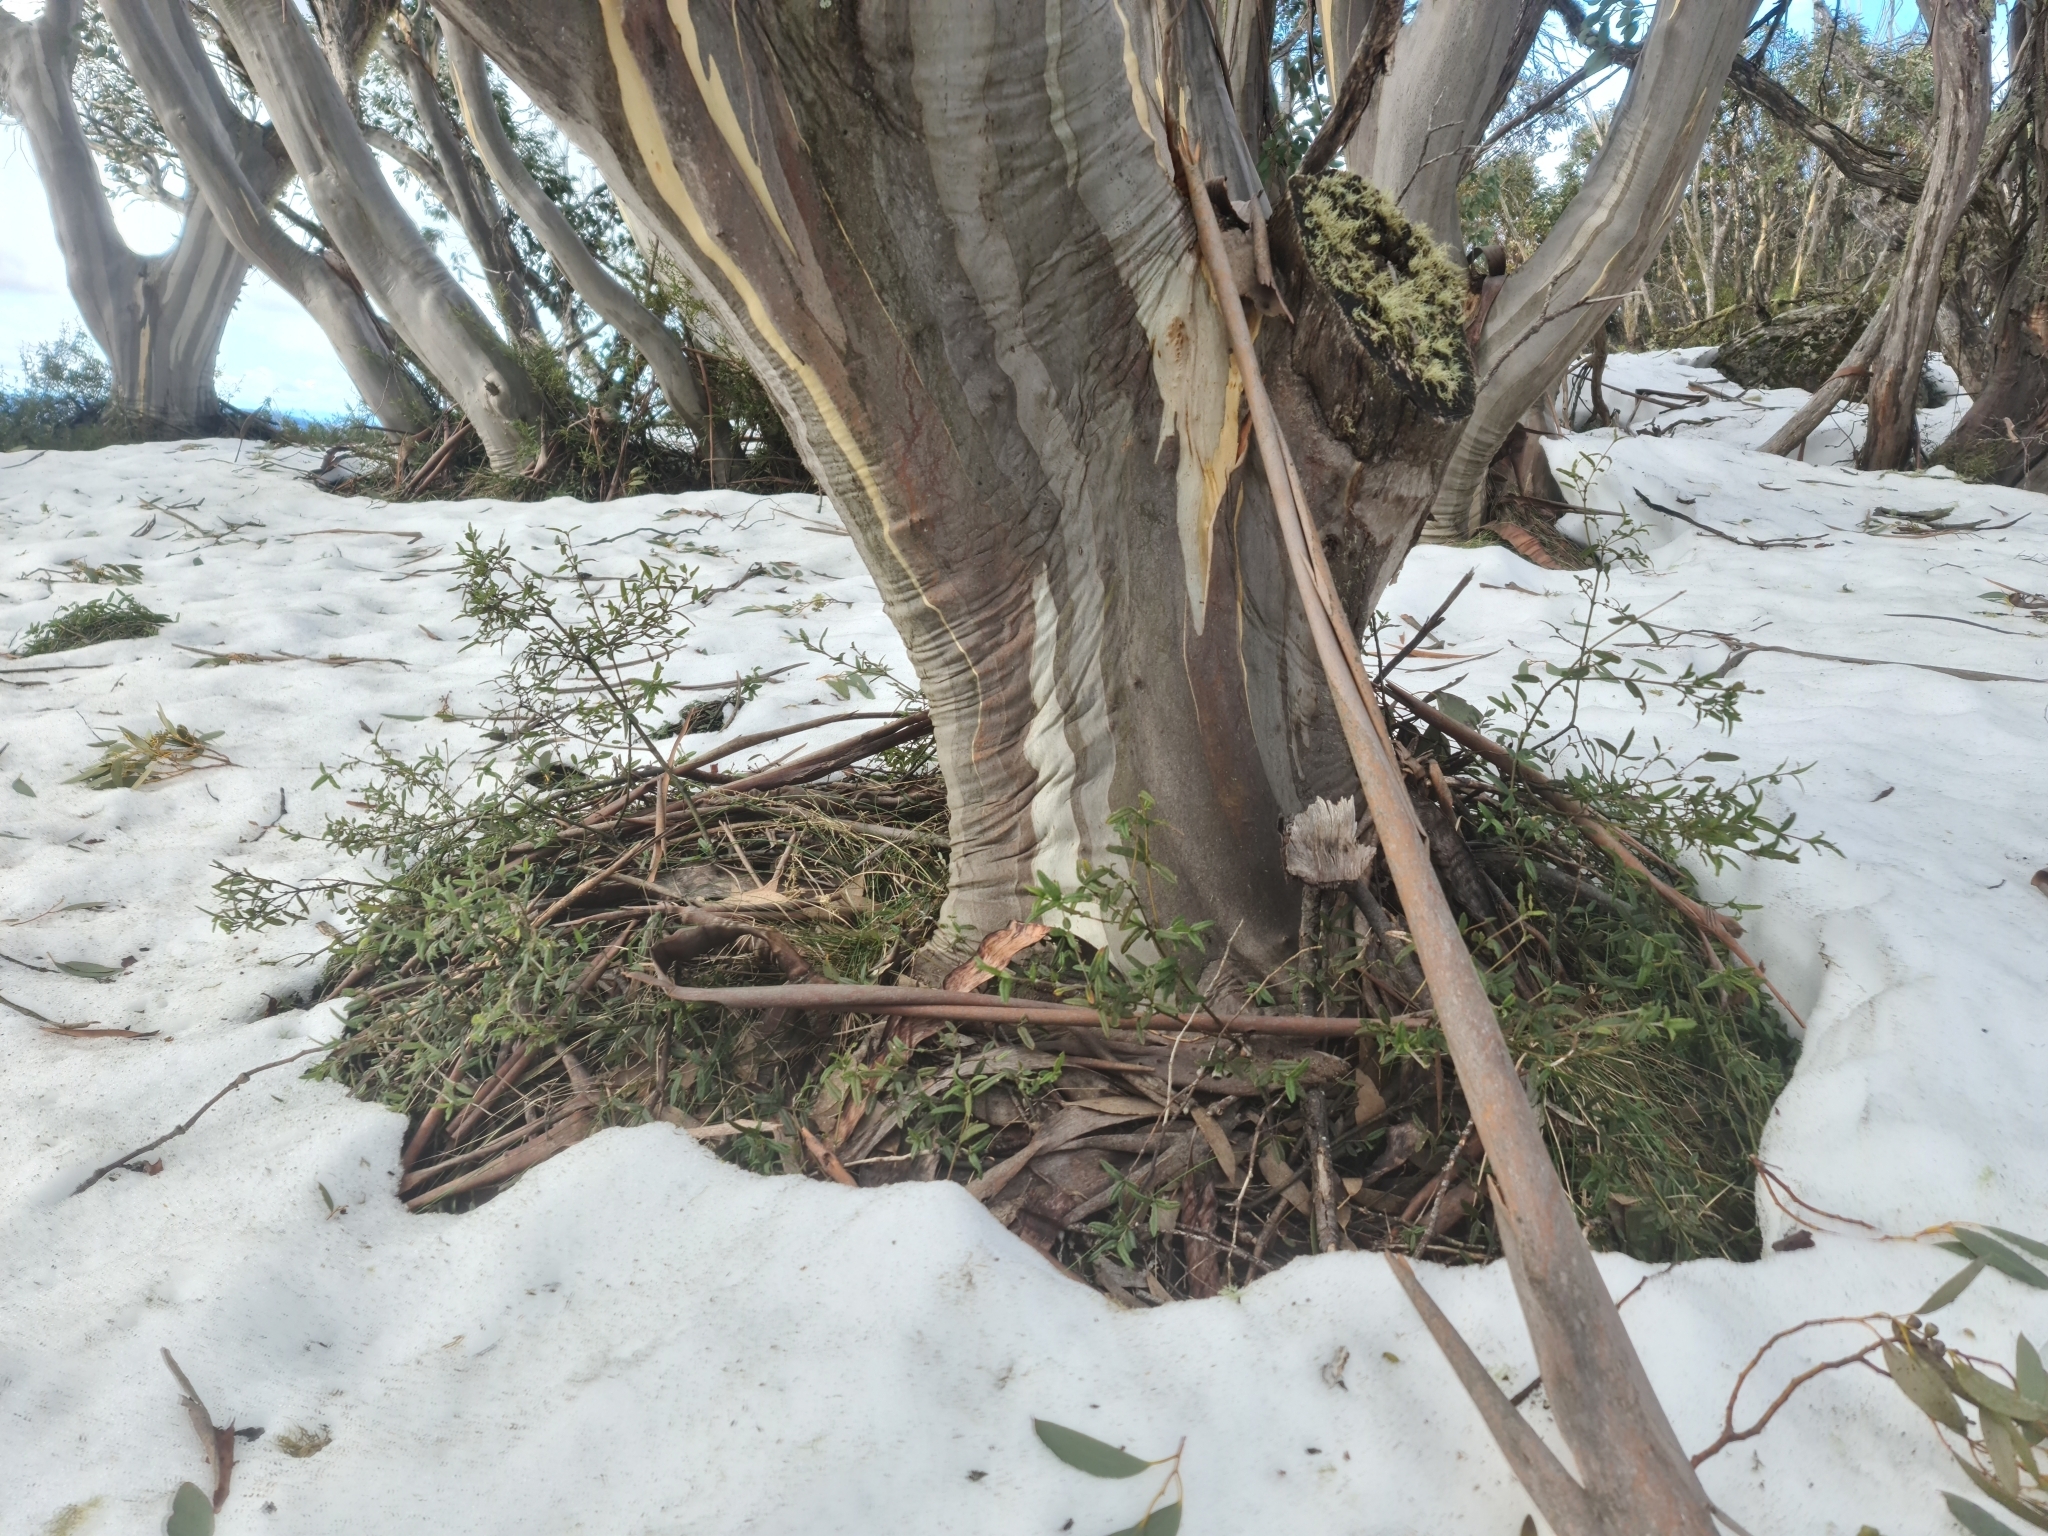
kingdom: Plantae
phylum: Tracheophyta
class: Magnoliopsida
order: Myrtales
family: Myrtaceae
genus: Eucalyptus
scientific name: Eucalyptus pauciflora
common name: Snow gum
